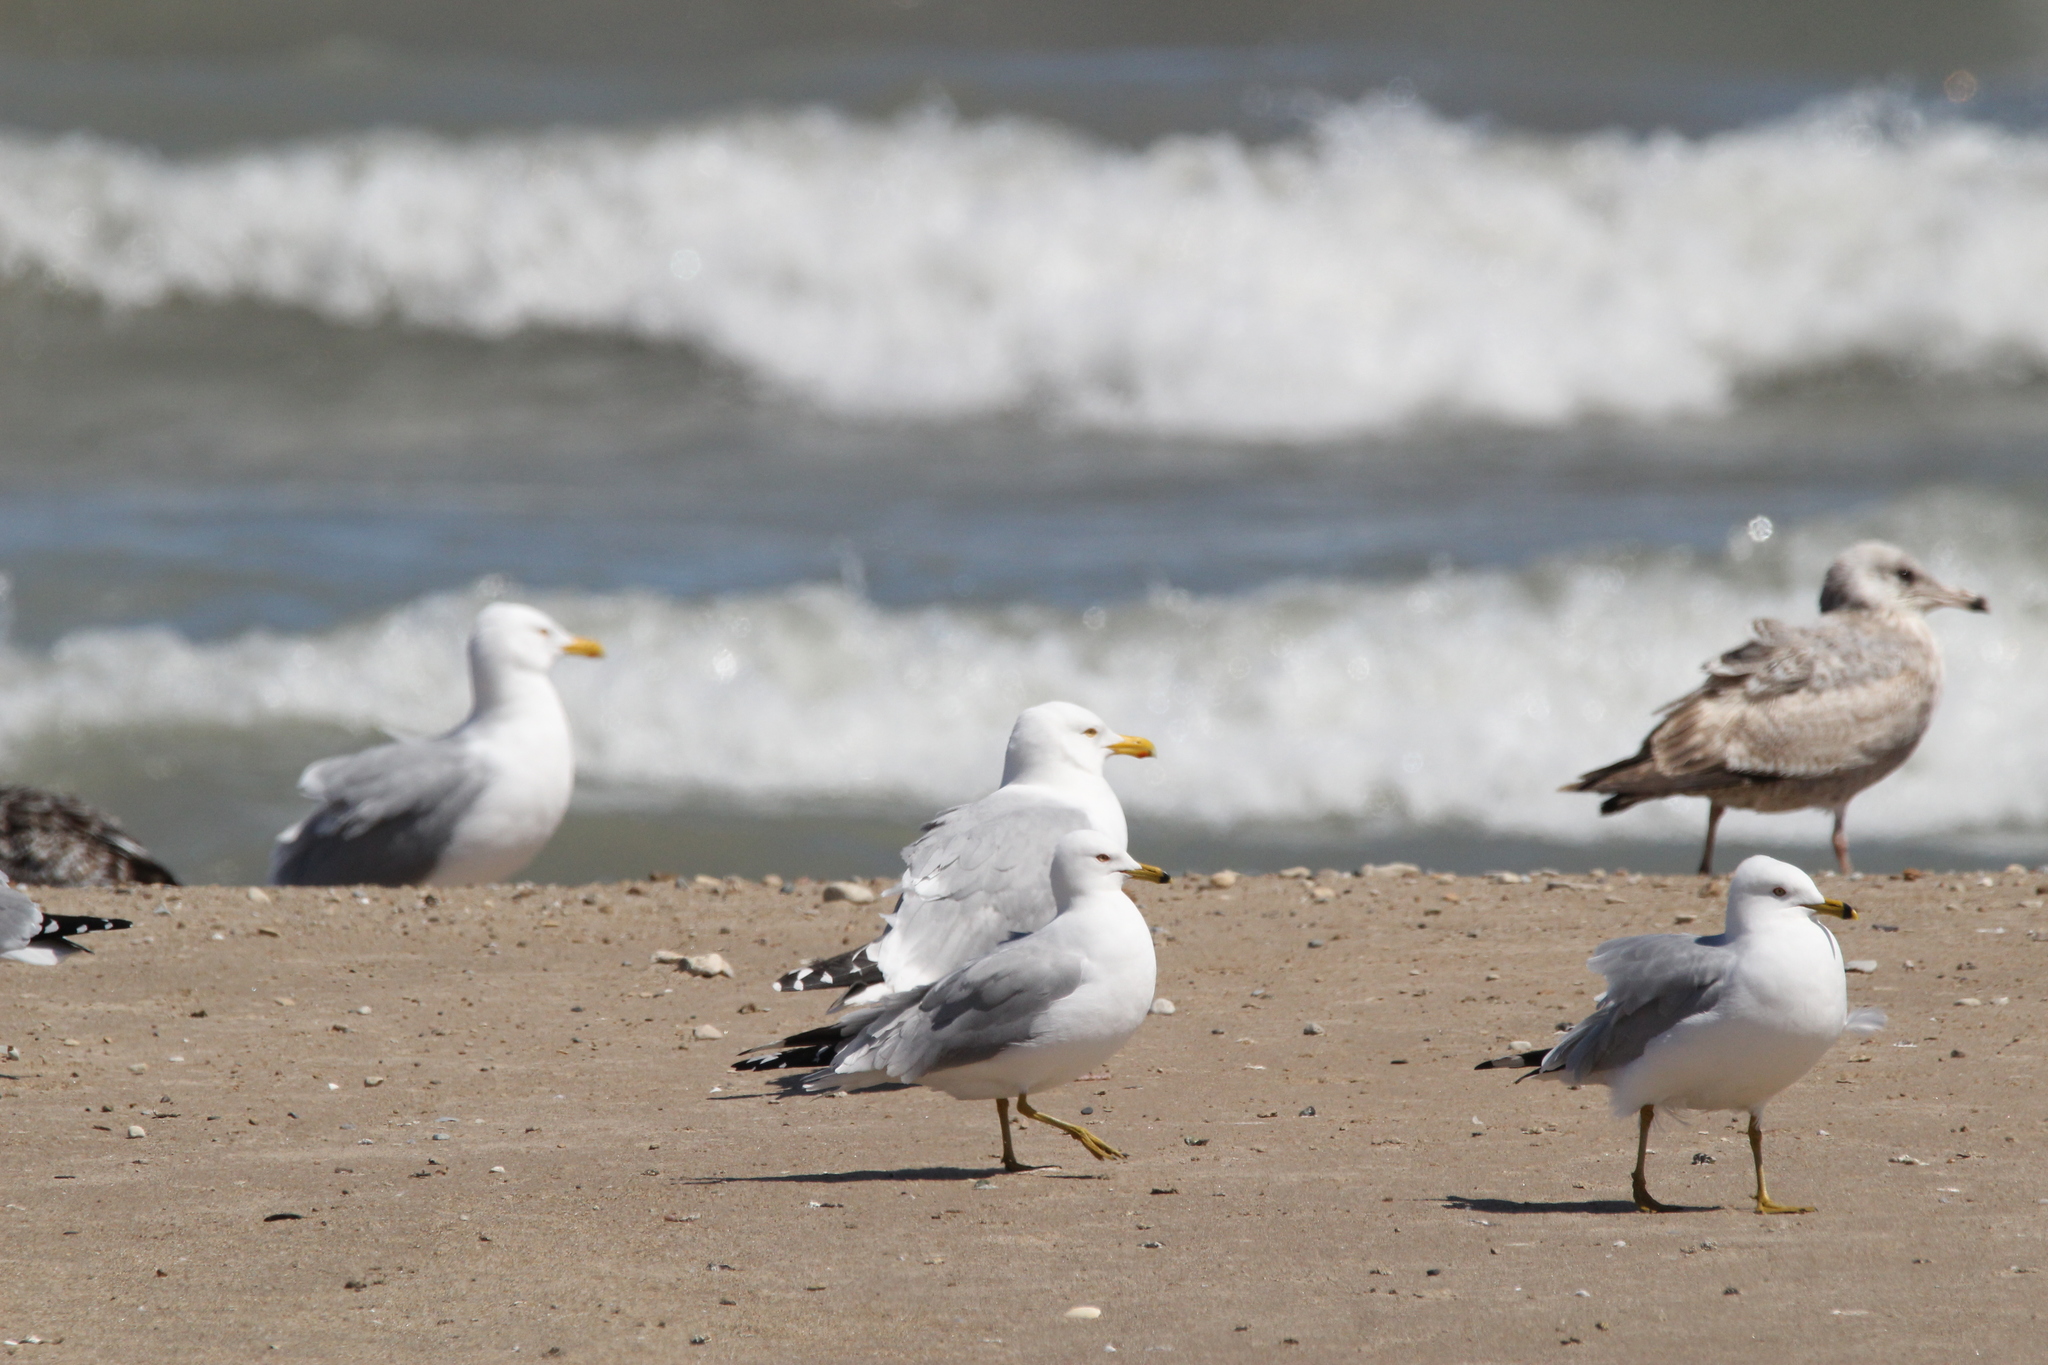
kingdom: Animalia
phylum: Chordata
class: Aves
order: Charadriiformes
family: Laridae
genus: Larus
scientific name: Larus argentatus
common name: Herring gull
